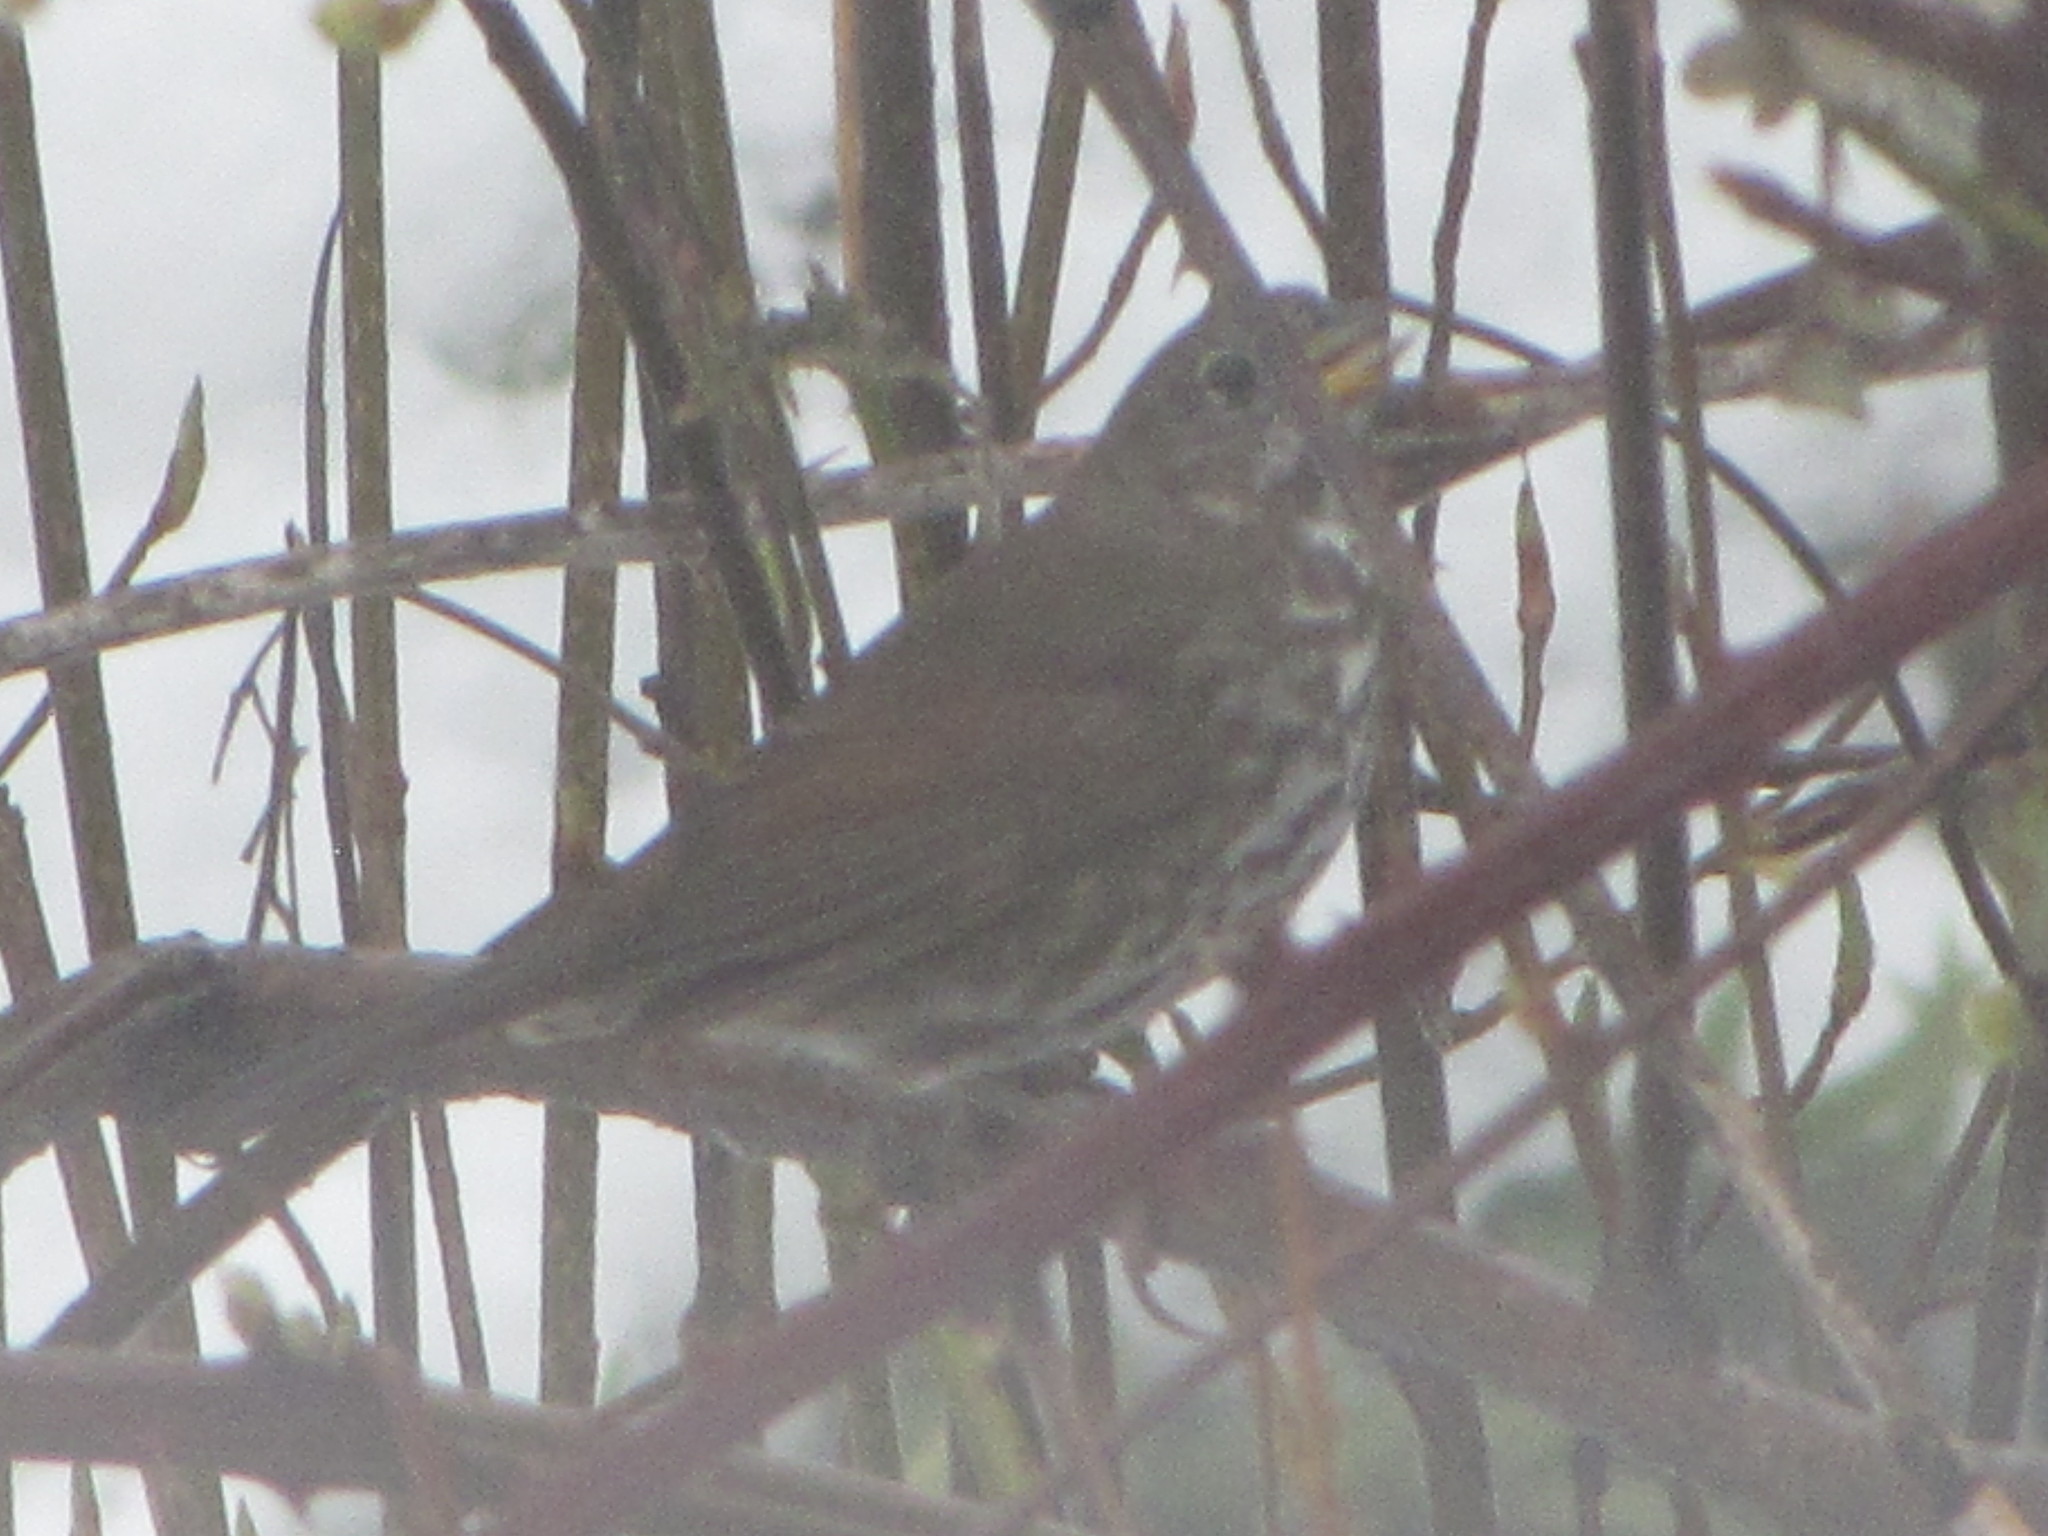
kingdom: Animalia
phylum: Chordata
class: Aves
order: Passeriformes
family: Passerellidae
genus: Passerella
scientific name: Passerella iliaca
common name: Fox sparrow
